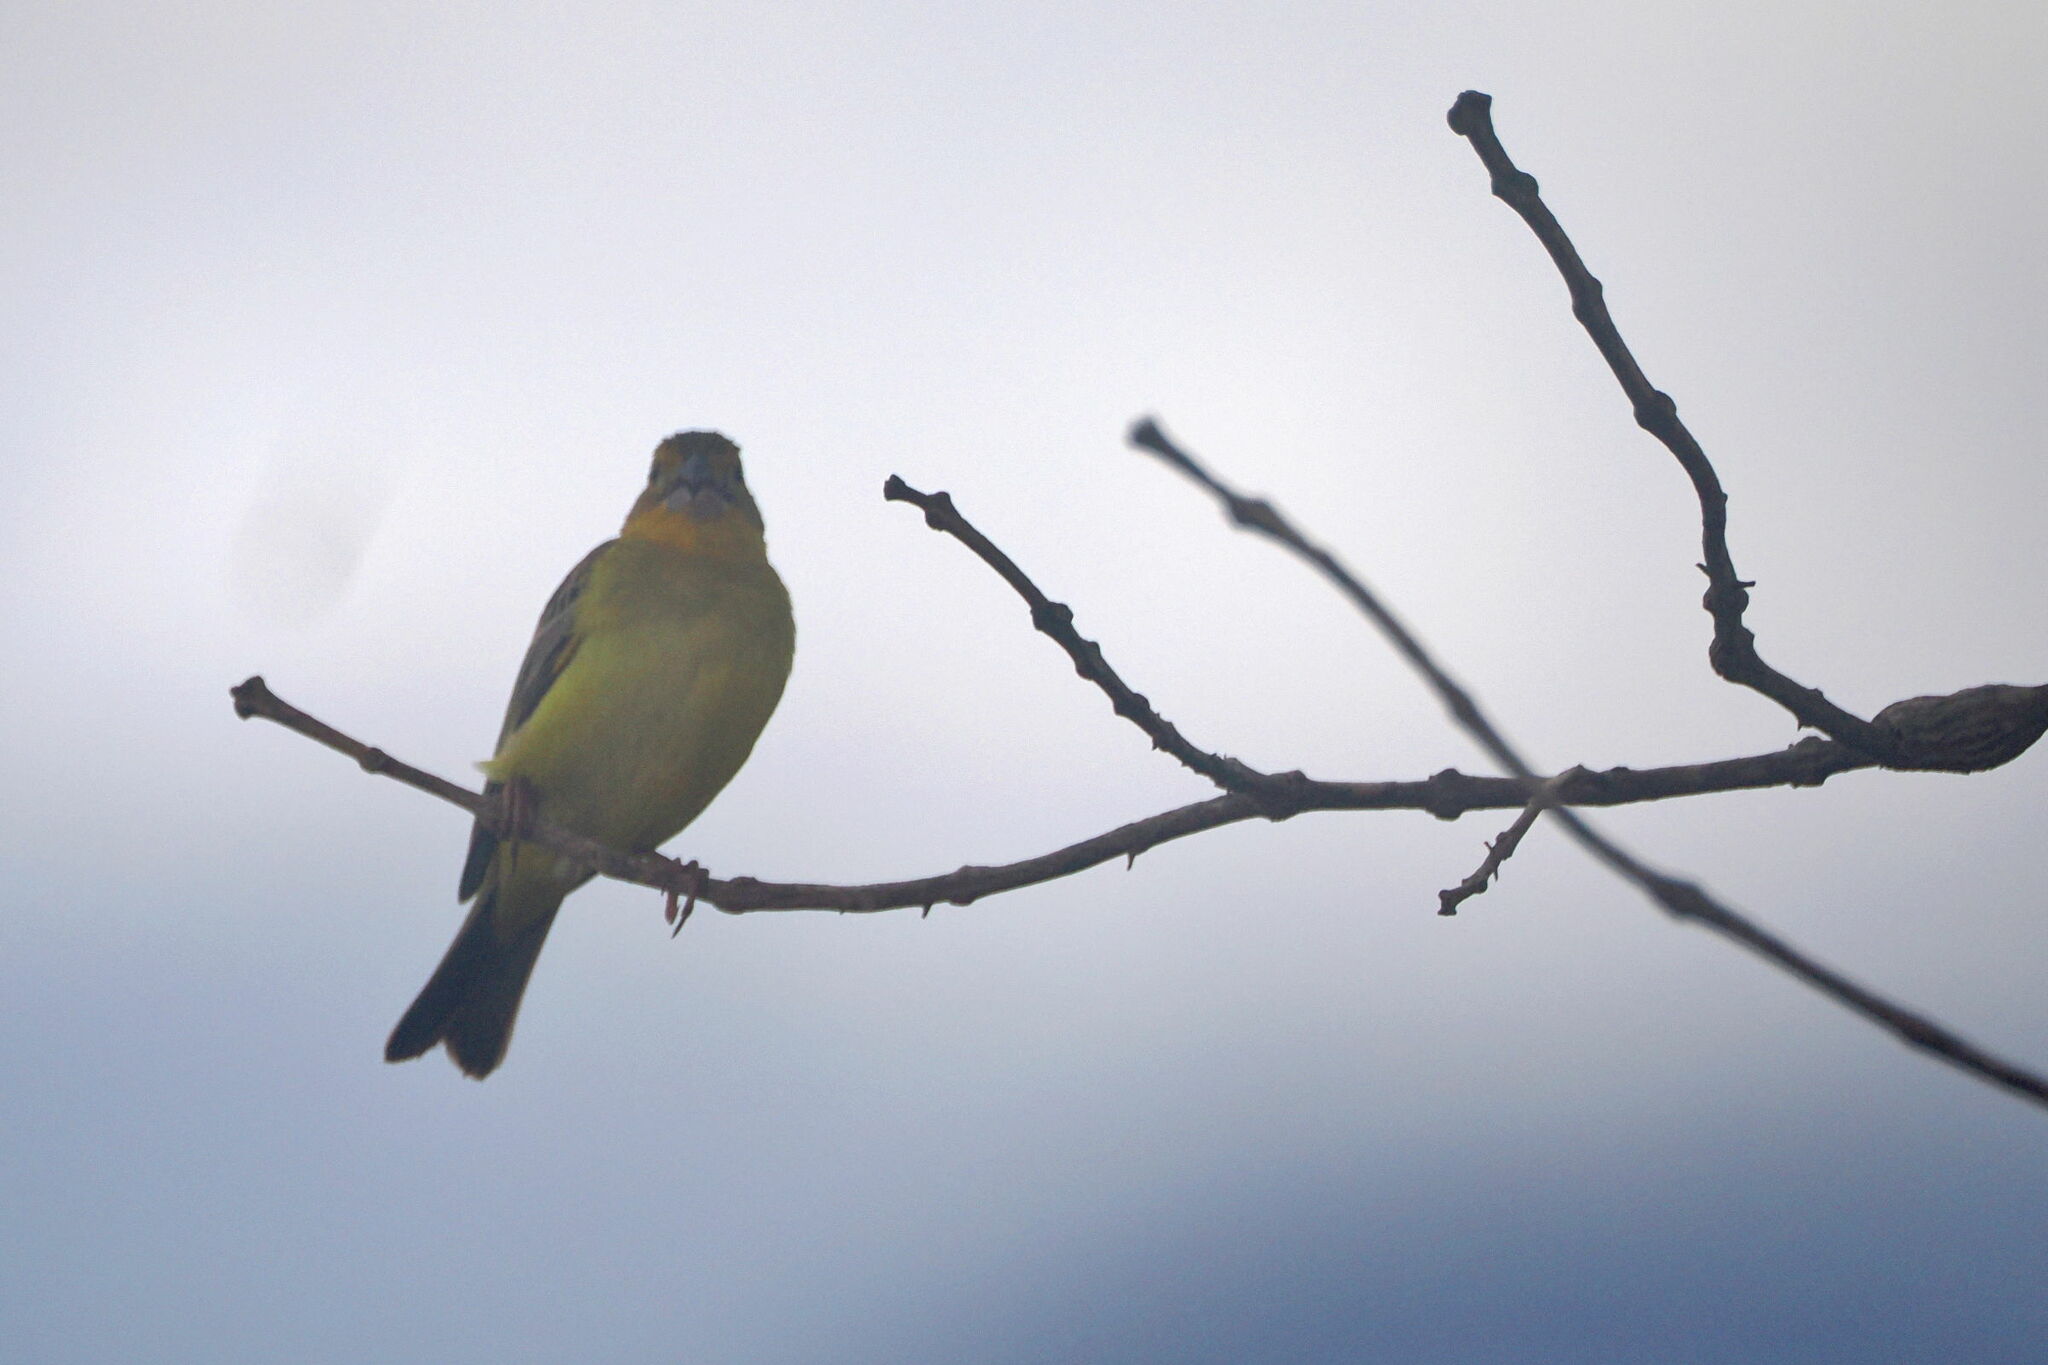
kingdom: Animalia
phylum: Chordata
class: Aves
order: Passeriformes
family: Thraupidae
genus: Sicalis
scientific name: Sicalis luteola
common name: Grassland yellow-finch
